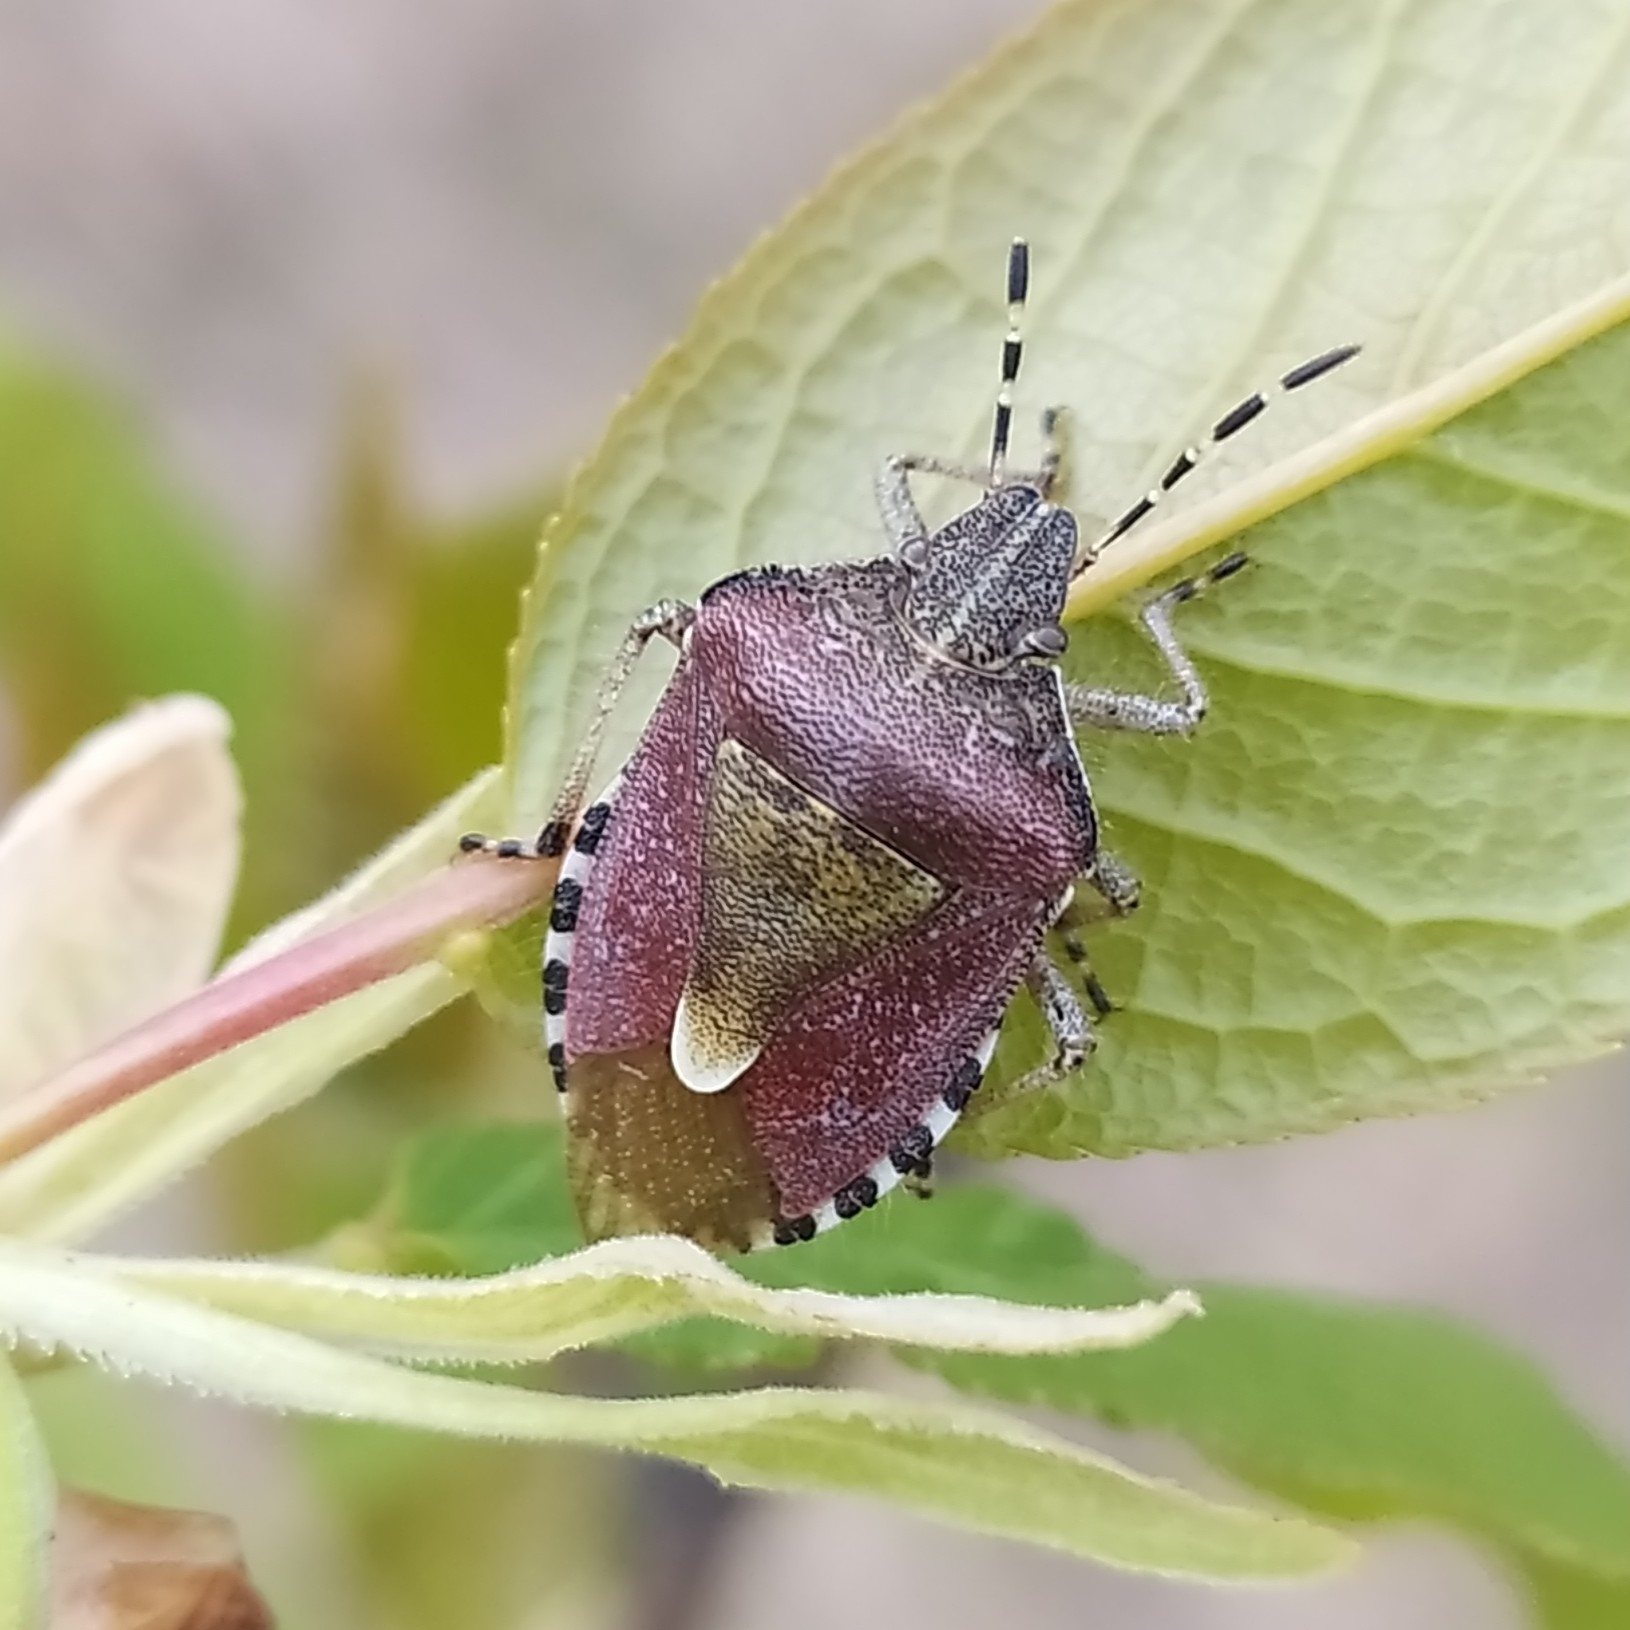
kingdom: Animalia
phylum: Arthropoda
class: Insecta
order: Hemiptera
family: Pentatomidae
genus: Dolycoris
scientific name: Dolycoris baccarum
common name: Sloe bug
